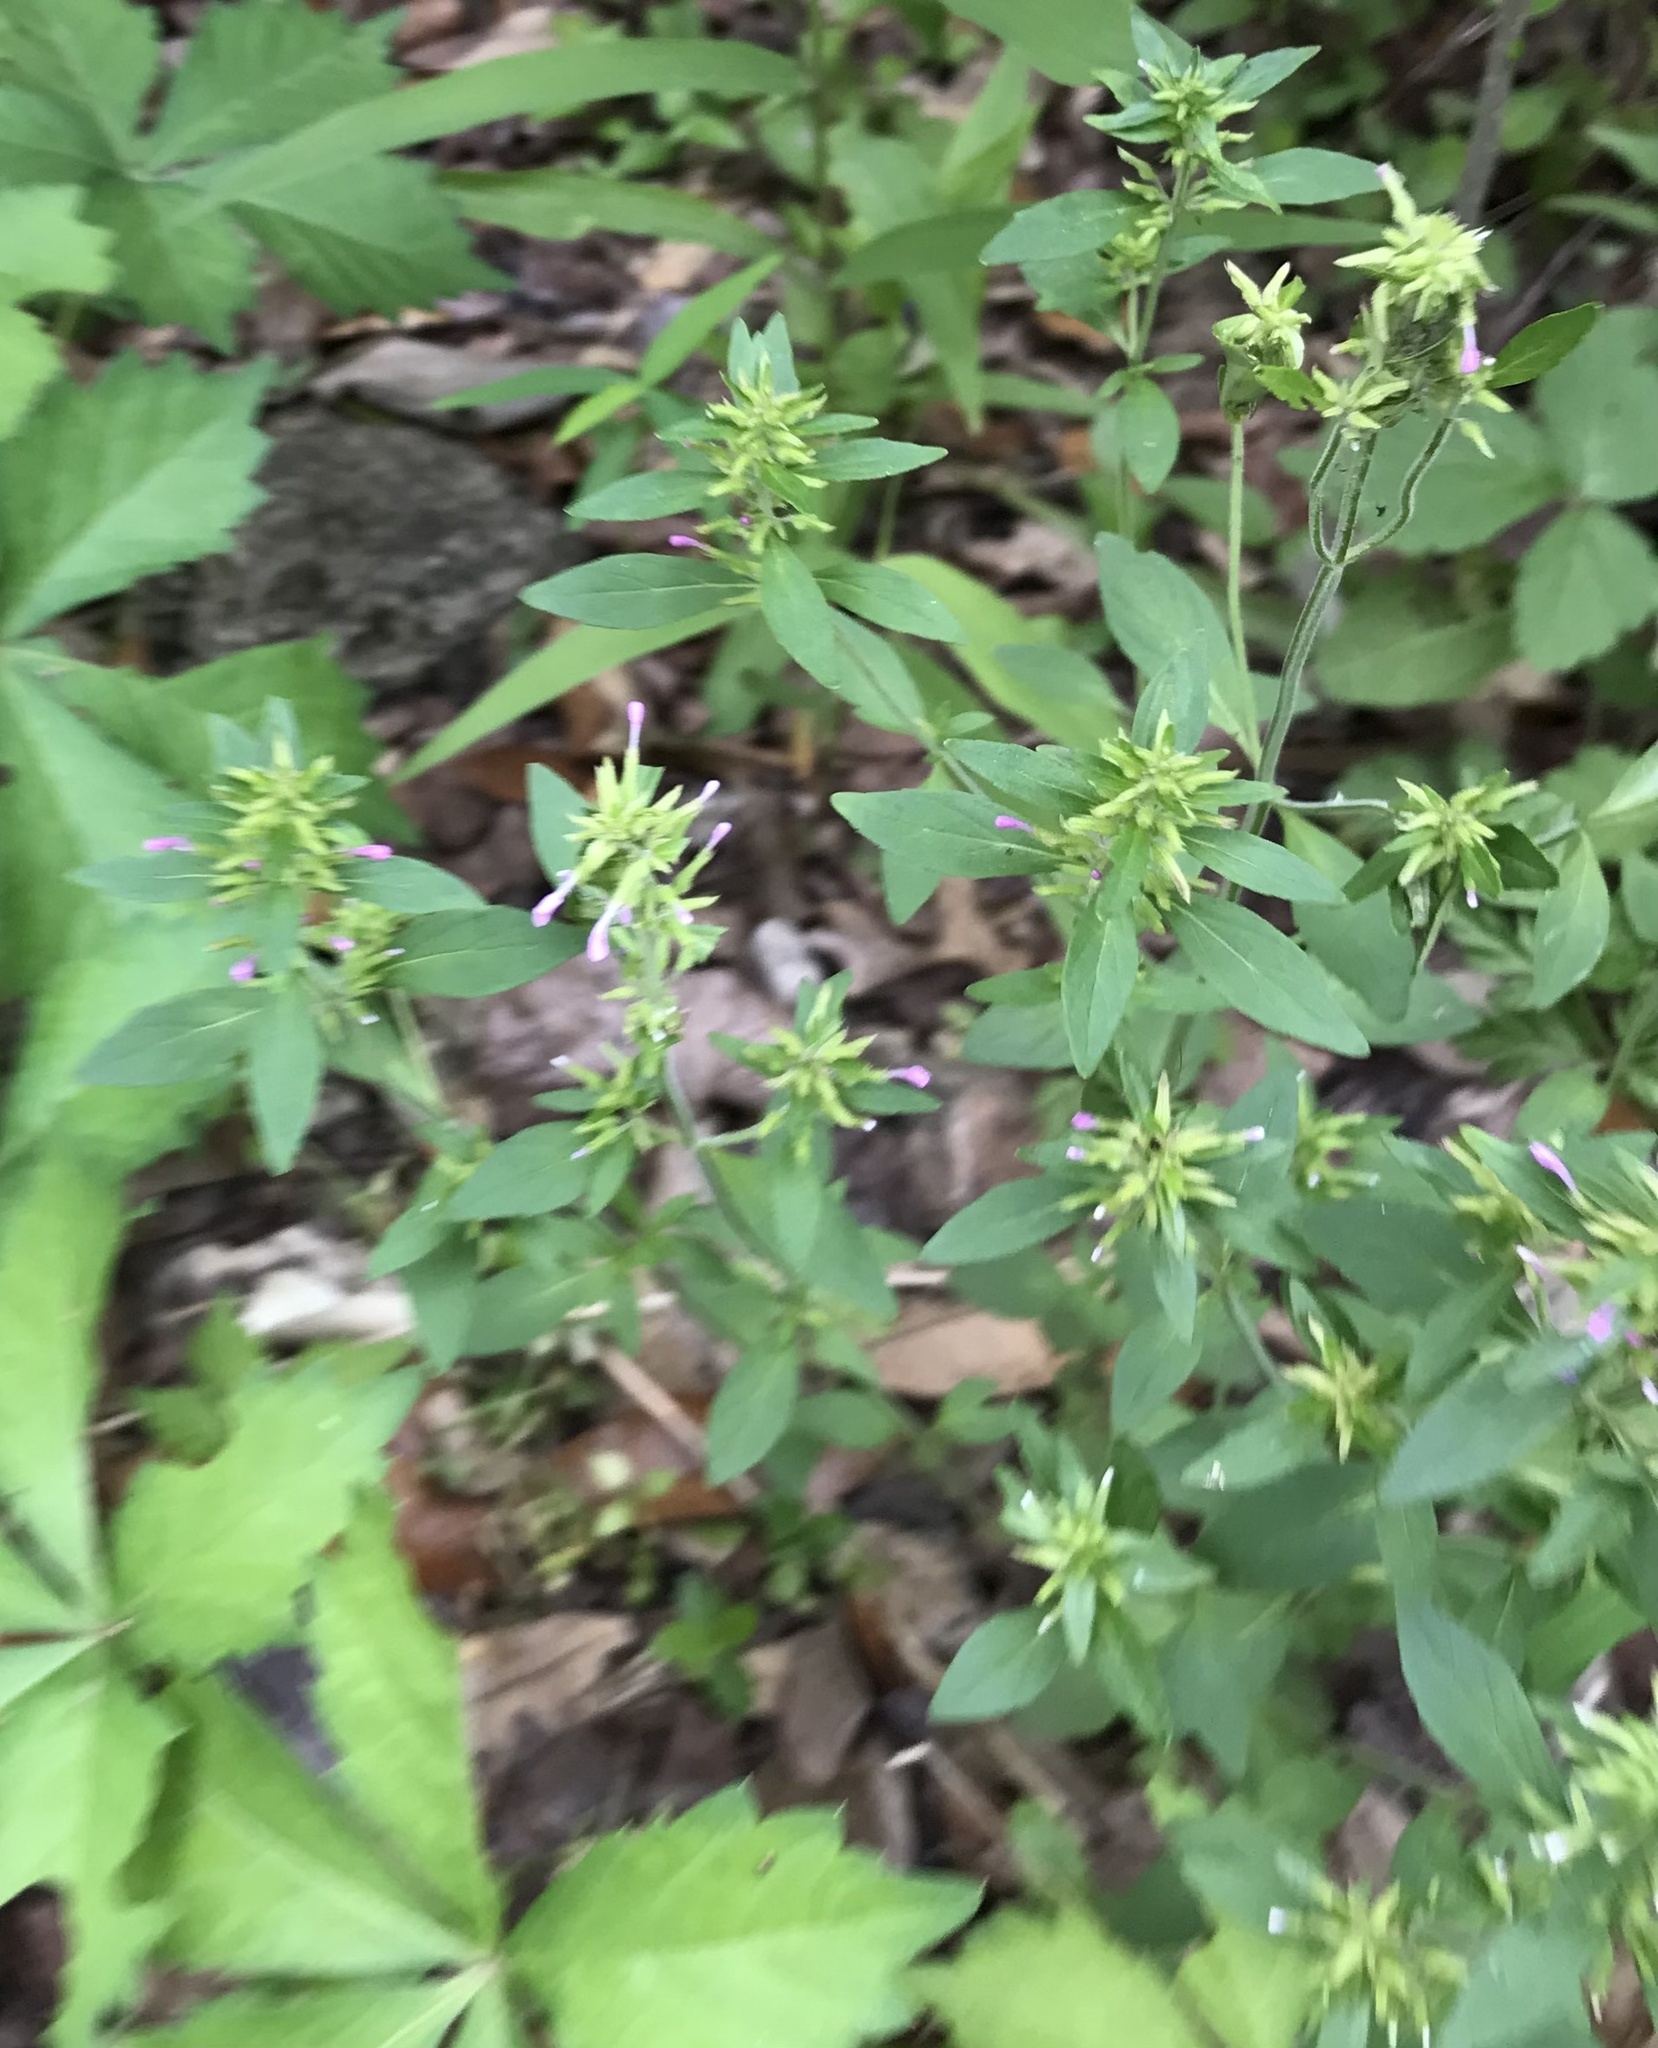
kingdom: Plantae
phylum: Tracheophyta
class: Magnoliopsida
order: Lamiales
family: Lamiaceae
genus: Hedeoma
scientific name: Hedeoma acinoides
